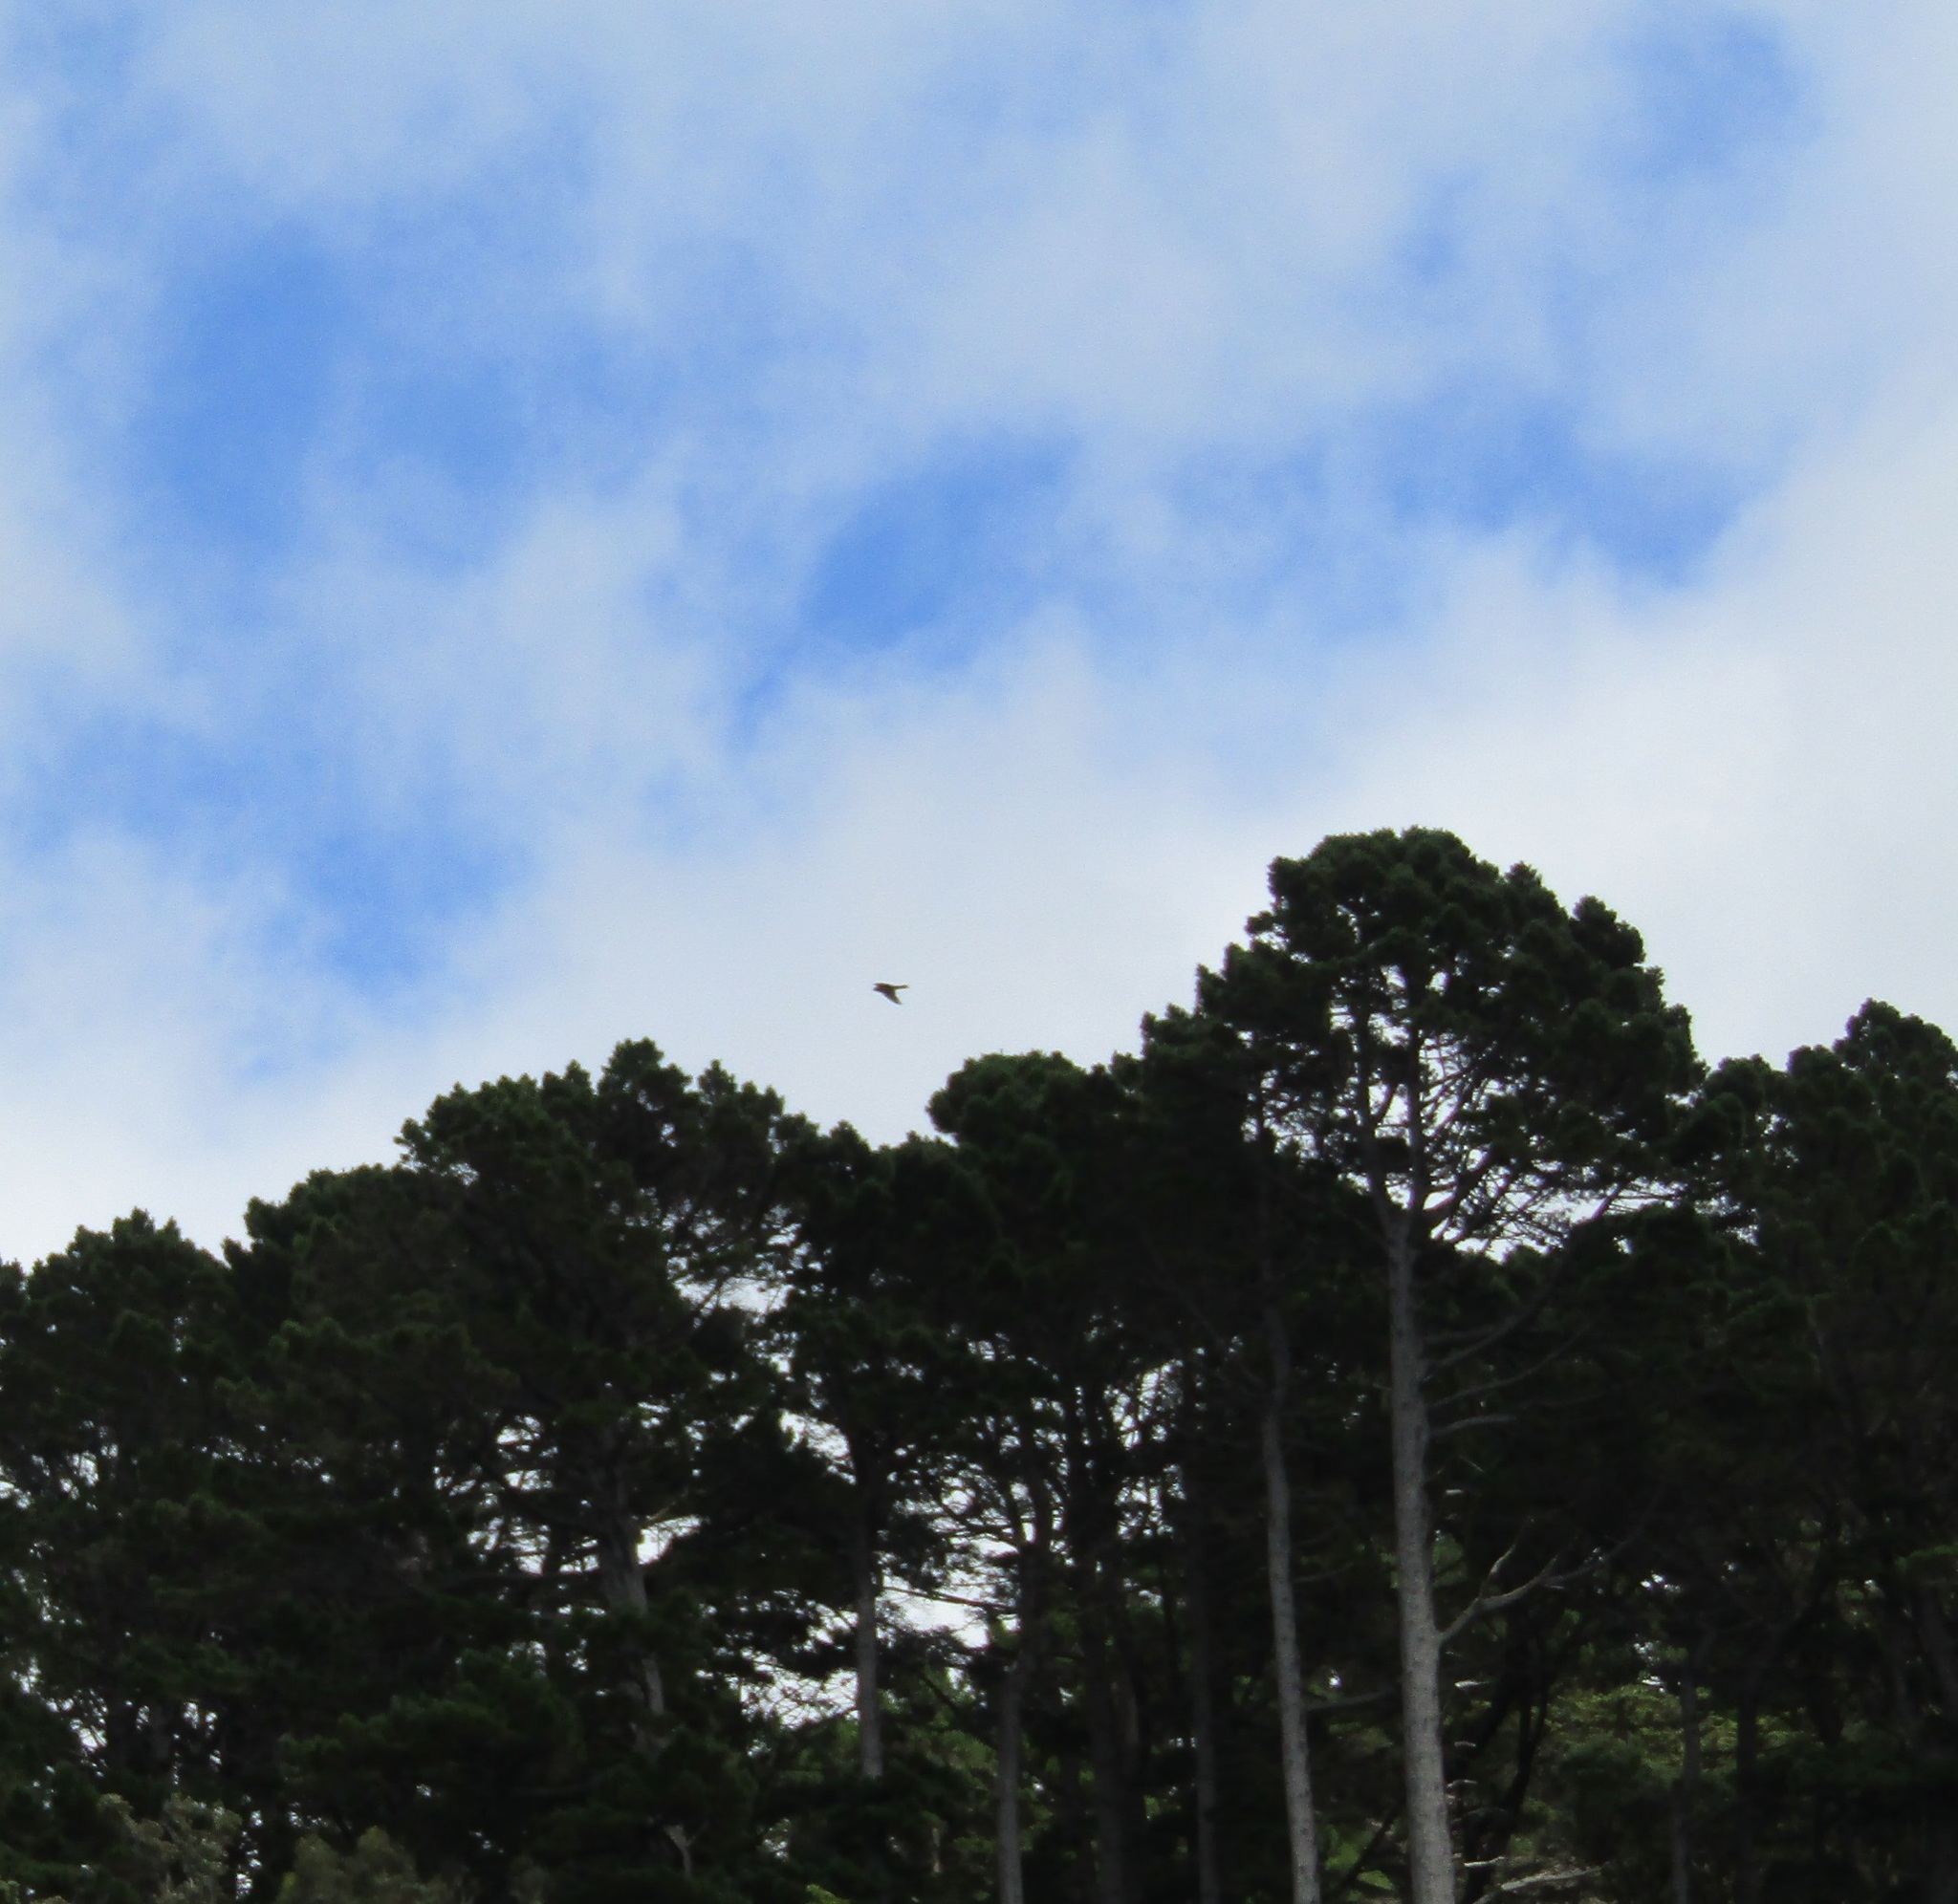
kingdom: Animalia
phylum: Chordata
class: Aves
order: Falconiformes
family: Falconidae
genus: Falco
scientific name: Falco novaeseelandiae
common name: New zealand falcon
